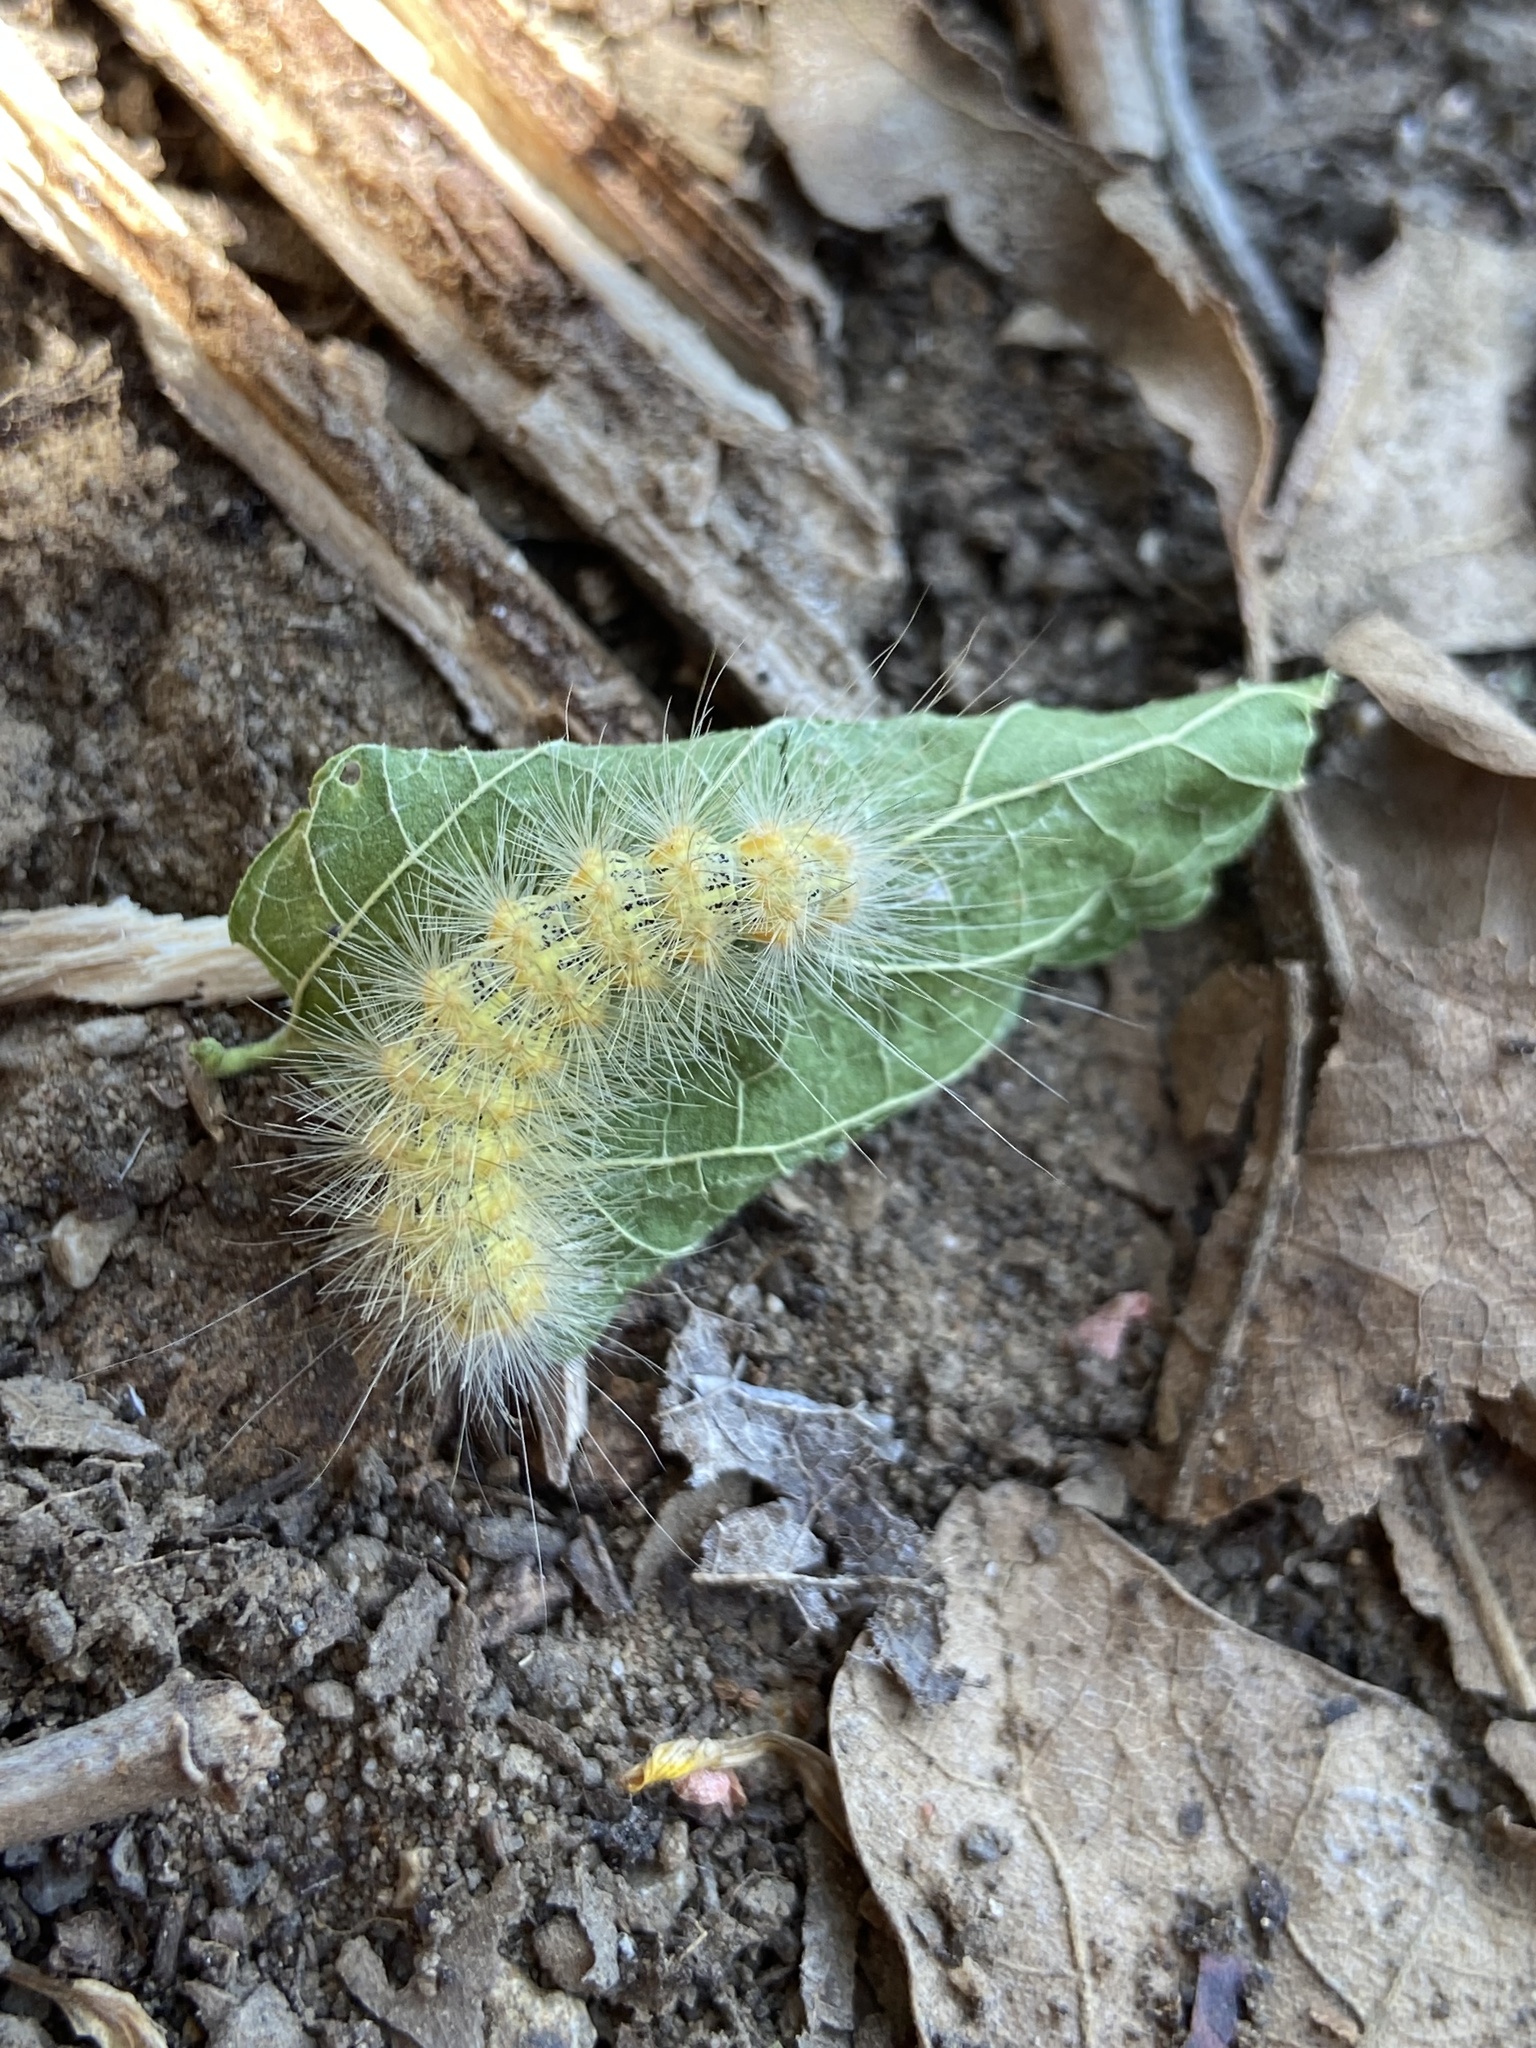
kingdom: Animalia
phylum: Arthropoda
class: Insecta
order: Lepidoptera
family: Erebidae
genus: Spilosoma
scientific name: Spilosoma virginica
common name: Virginia tiger moth
